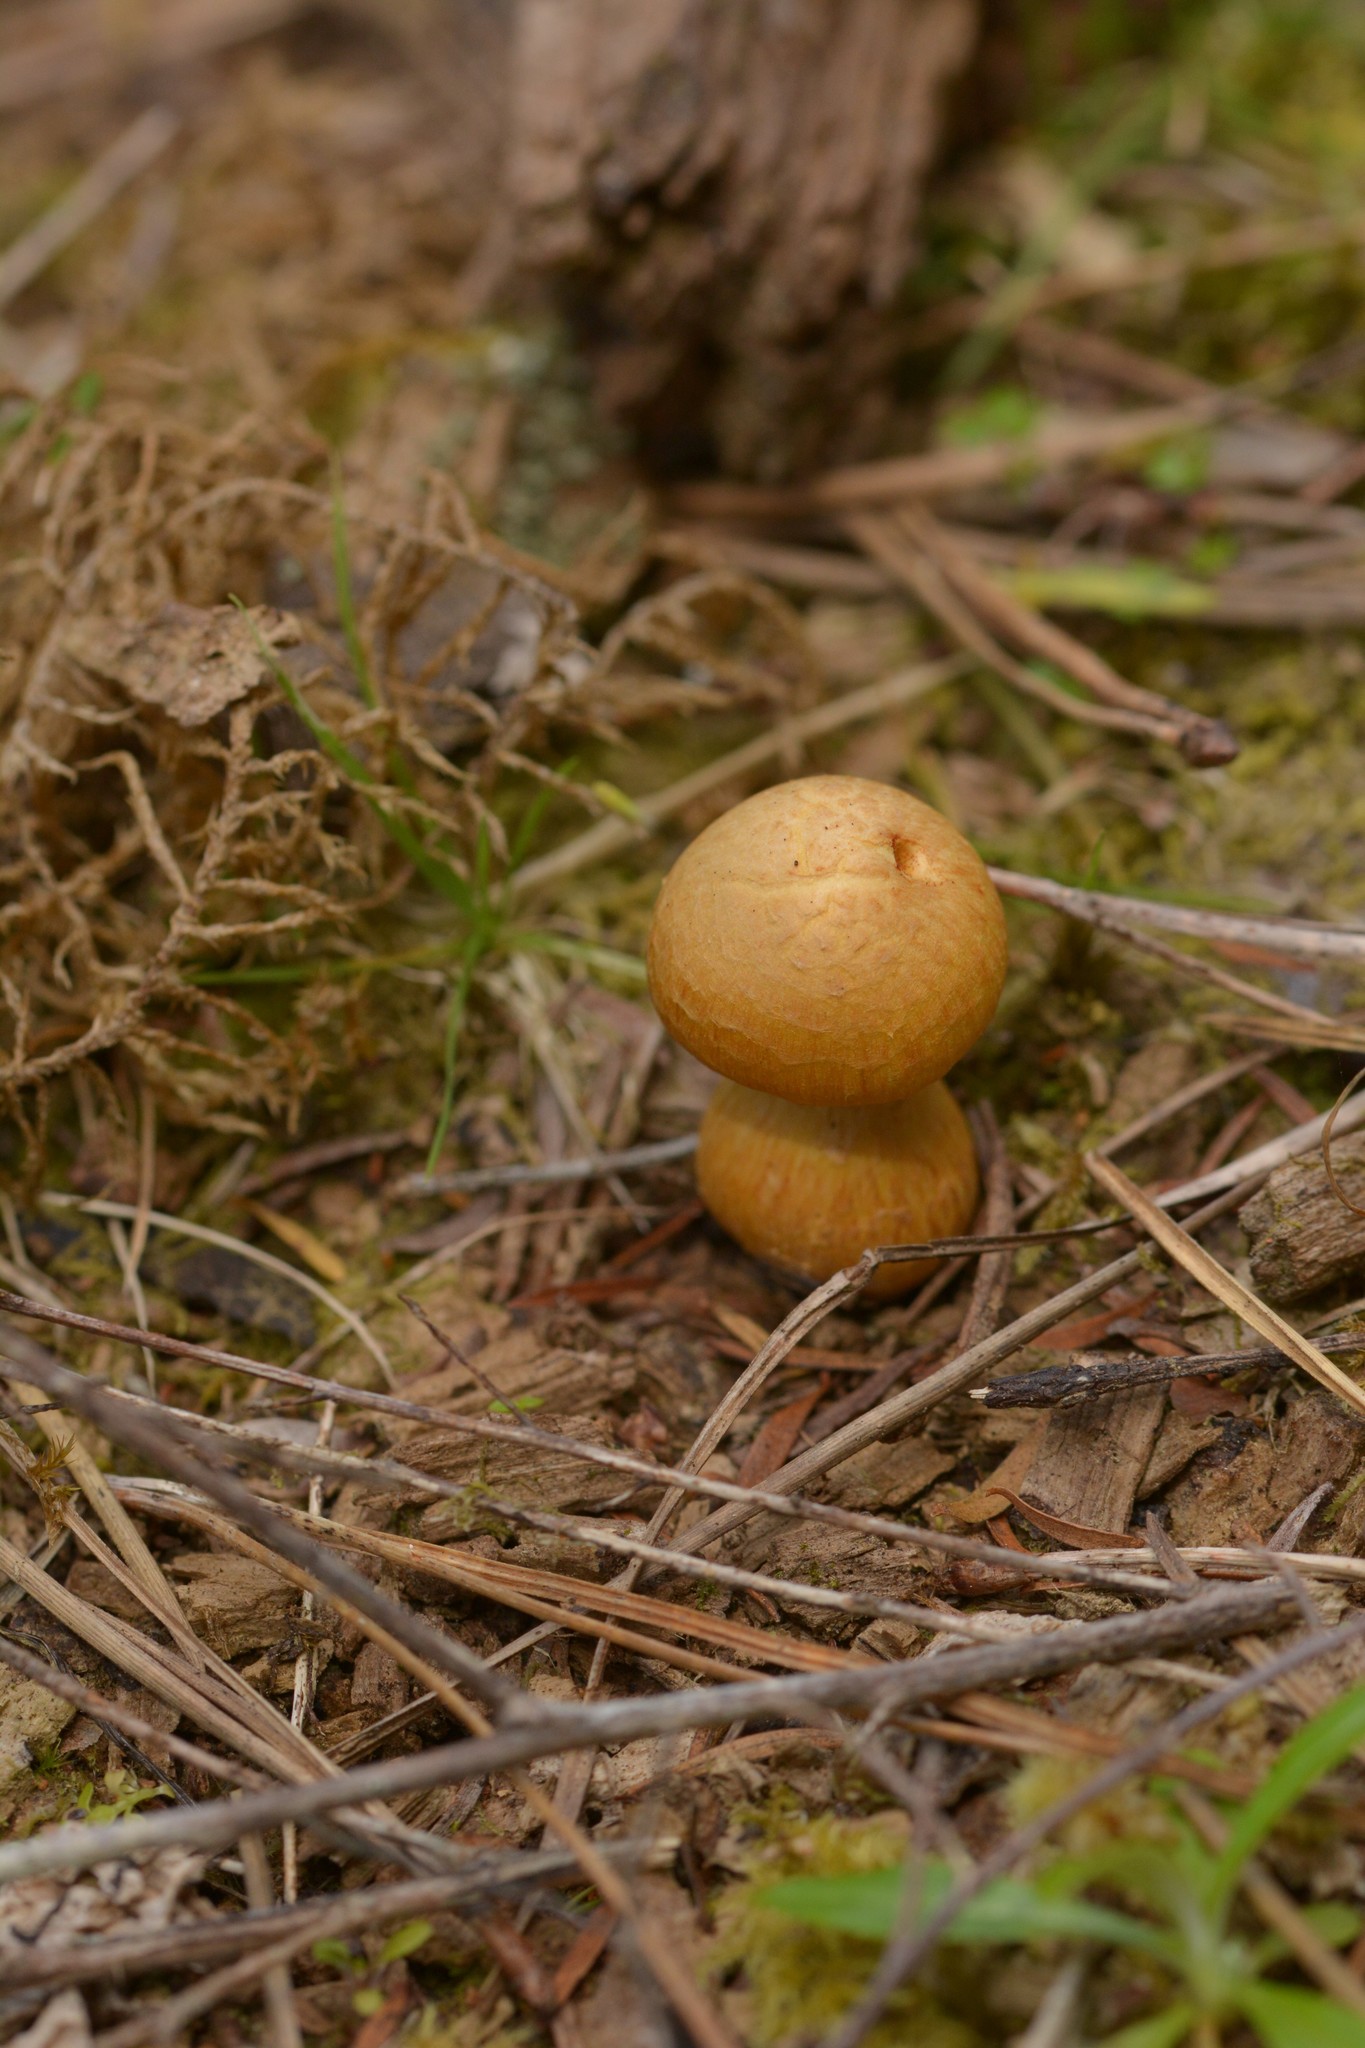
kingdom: Fungi
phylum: Basidiomycota
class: Agaricomycetes
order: Agaricales
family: Hymenogastraceae
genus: Gymnopilus
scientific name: Gymnopilus junonius
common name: Spectacular rustgill
